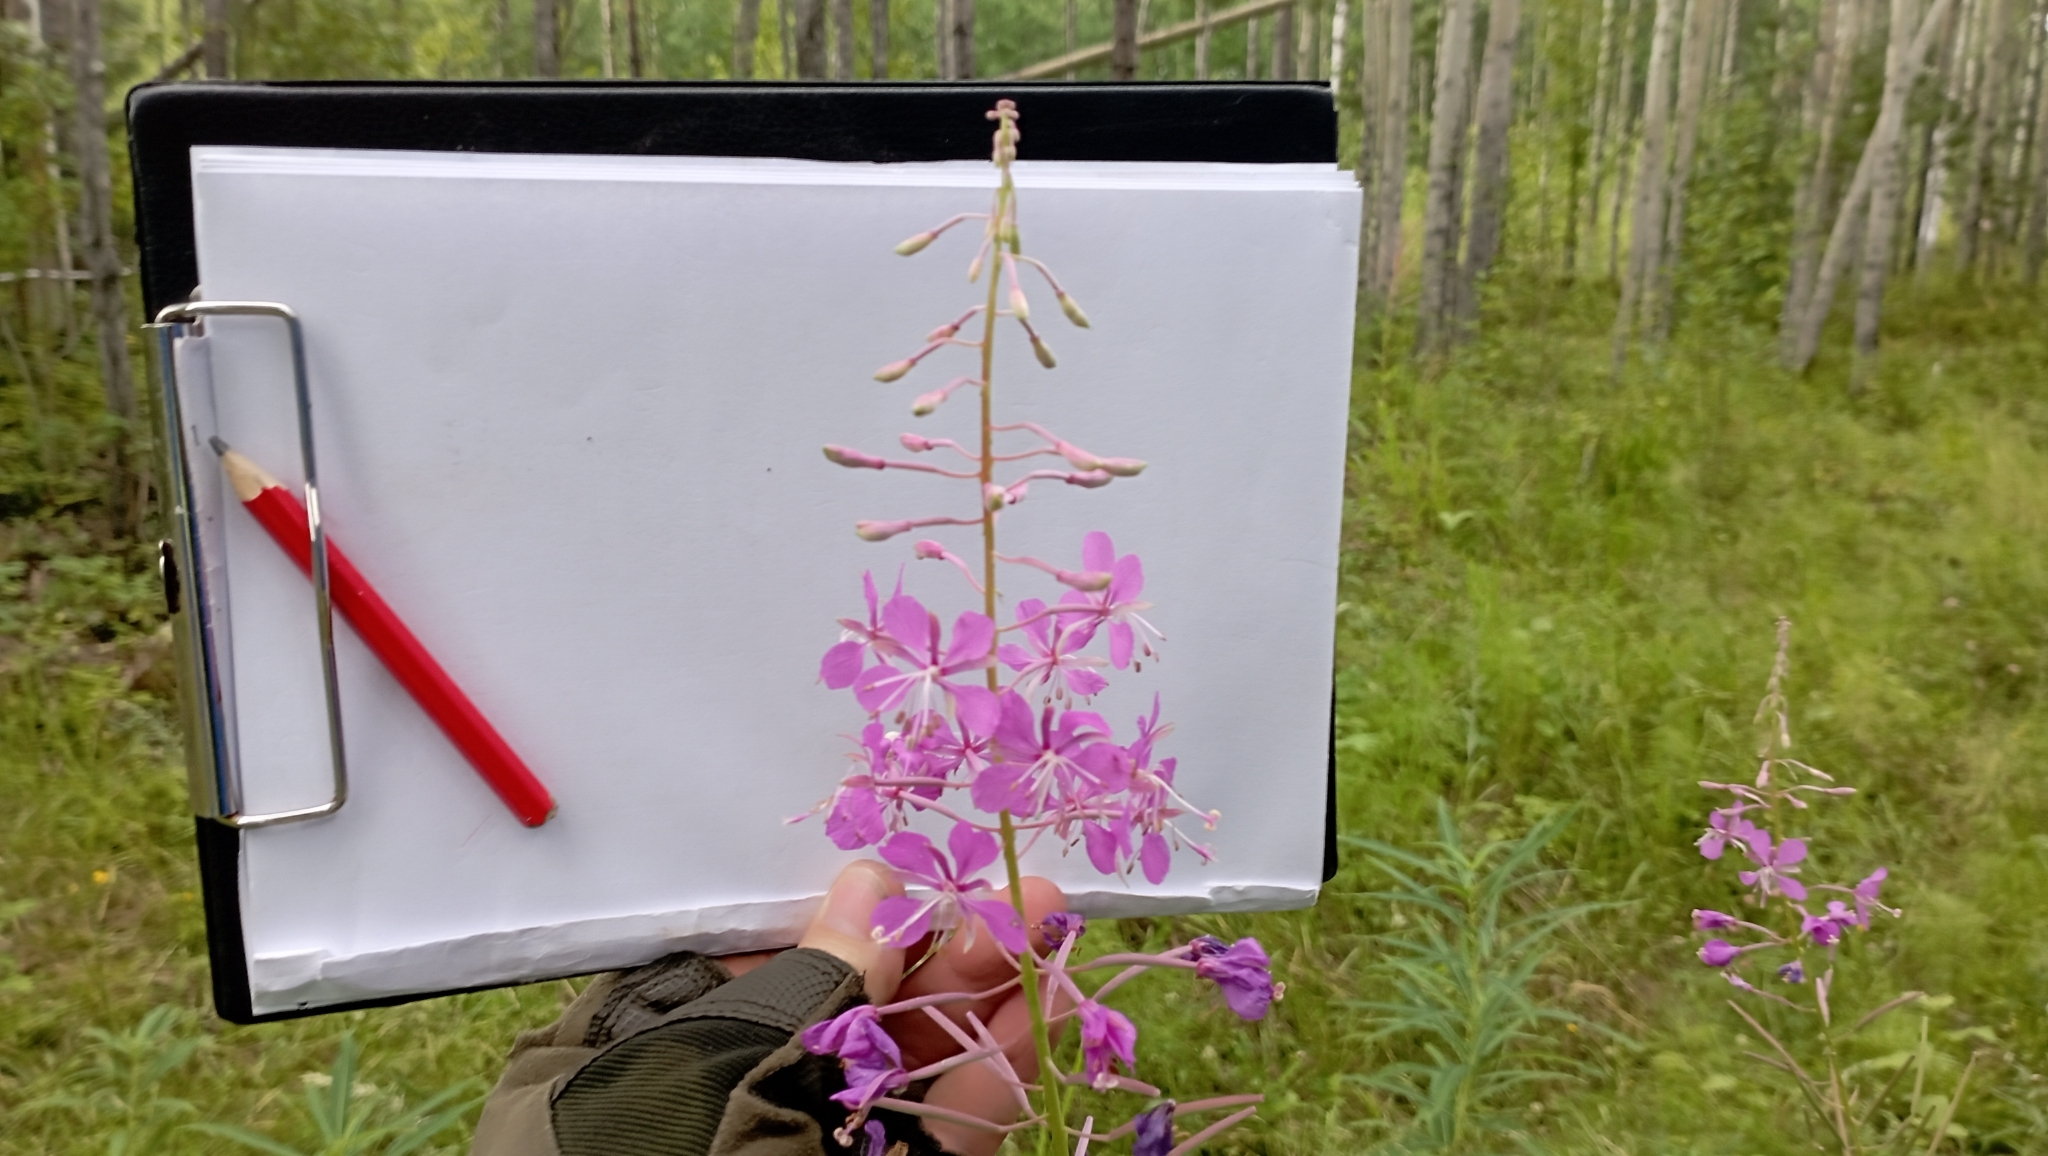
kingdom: Plantae
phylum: Tracheophyta
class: Magnoliopsida
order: Myrtales
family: Onagraceae
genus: Chamaenerion
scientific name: Chamaenerion angustifolium
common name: Fireweed
